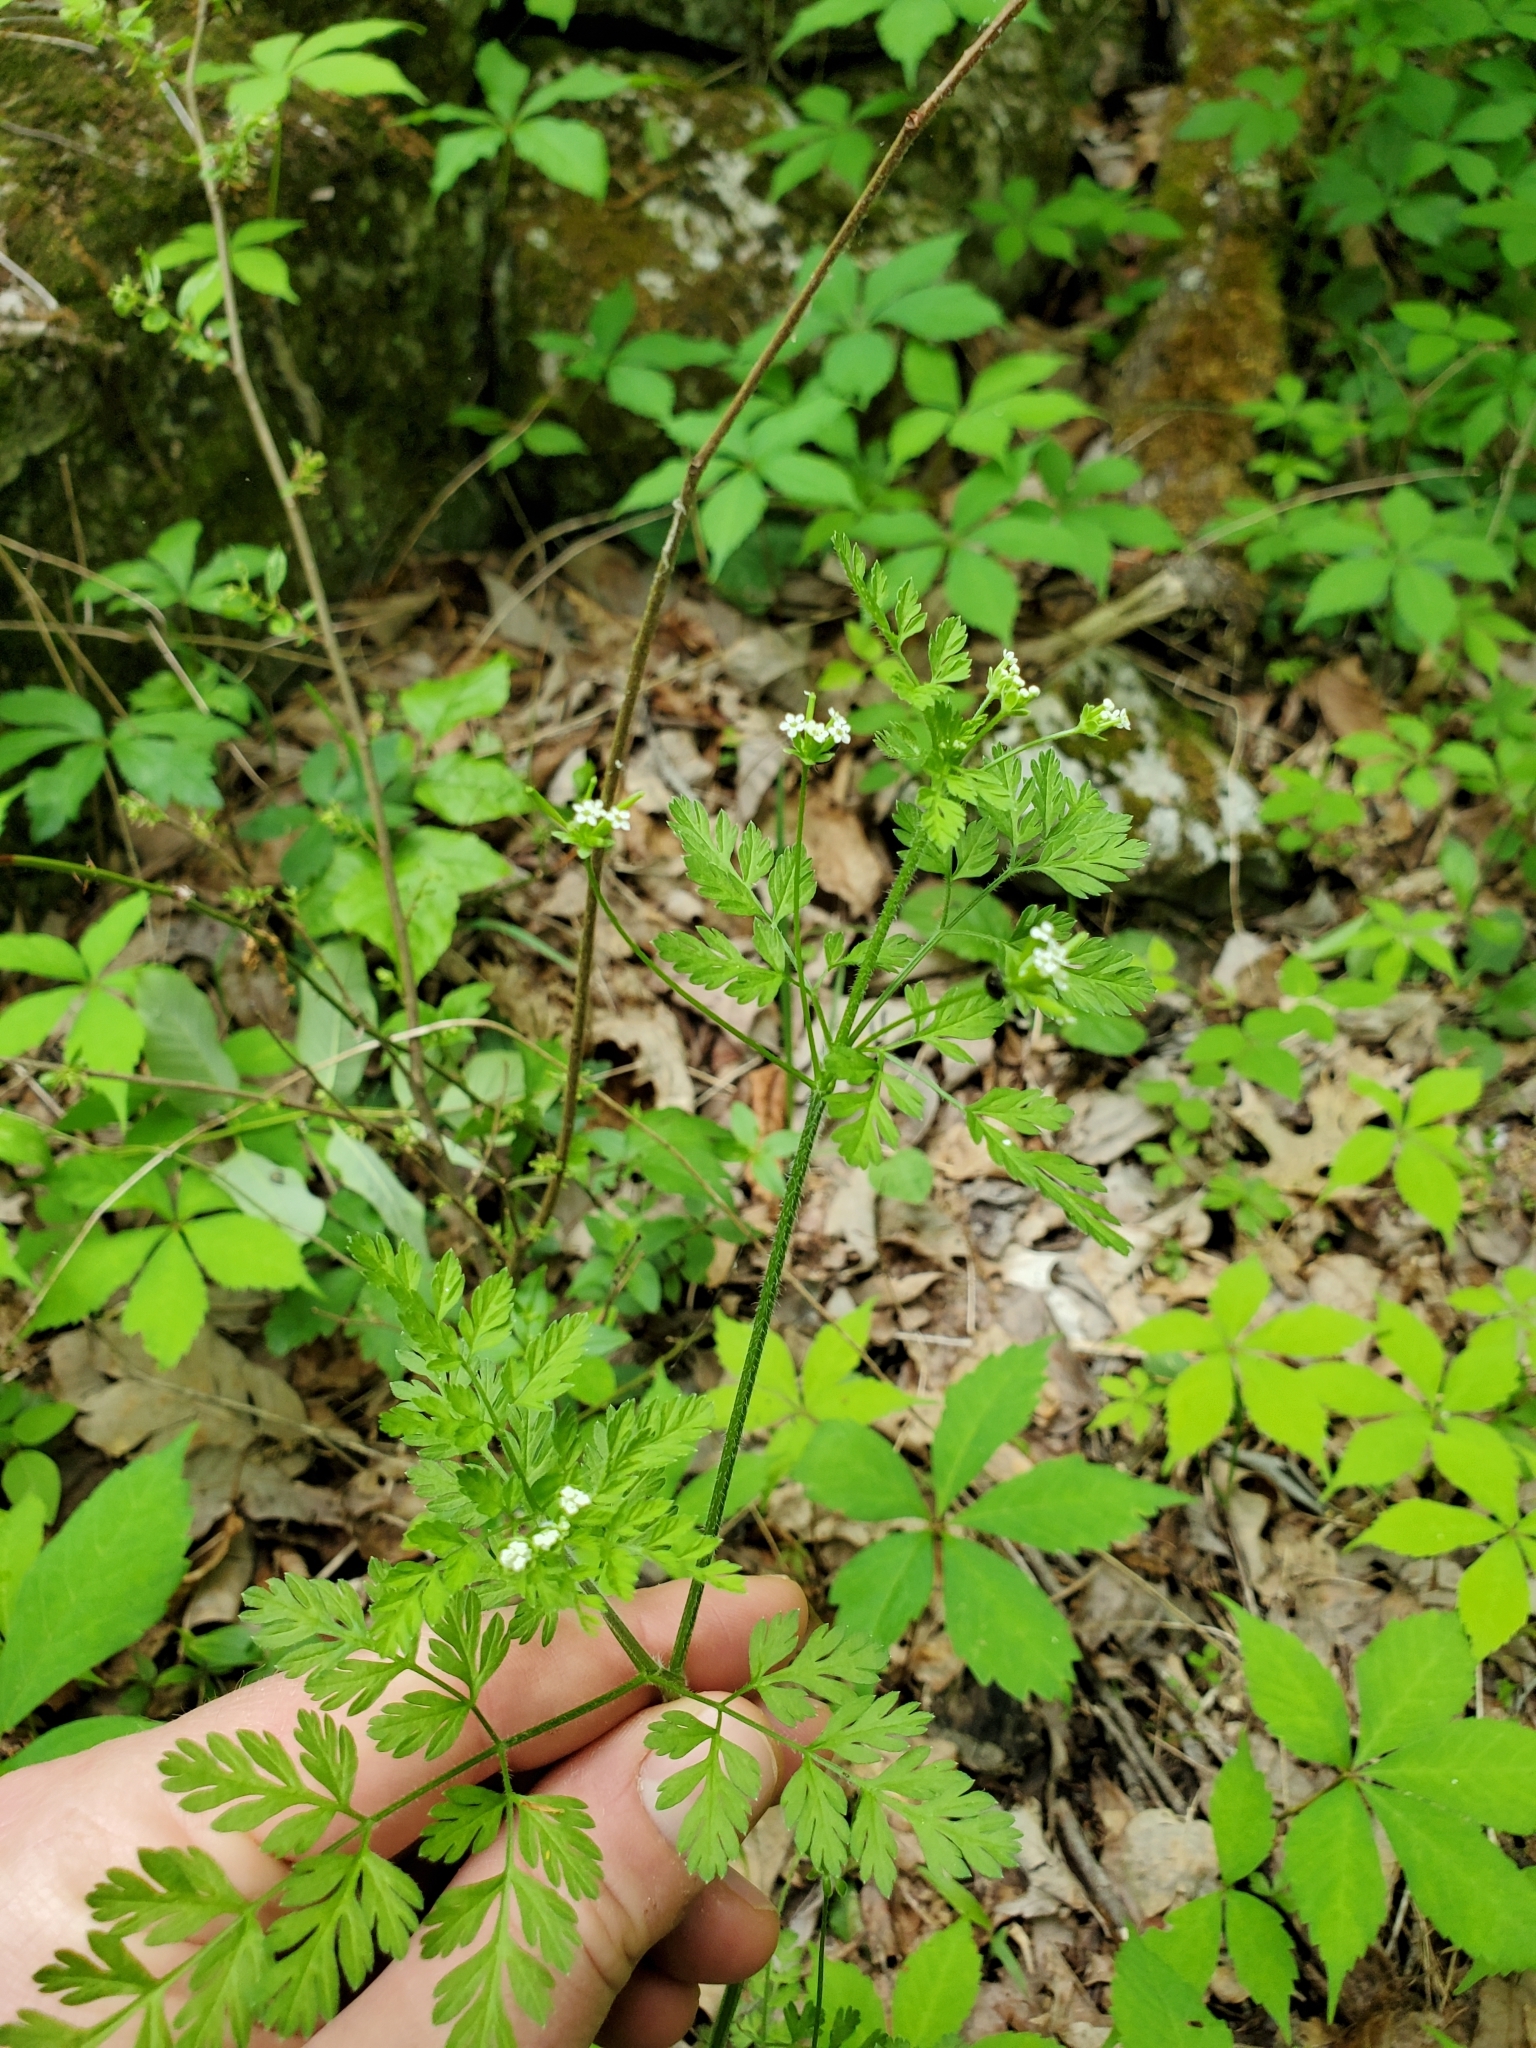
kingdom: Plantae
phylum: Tracheophyta
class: Magnoliopsida
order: Apiales
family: Apiaceae
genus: Chaerophyllum
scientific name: Chaerophyllum tainturieri
